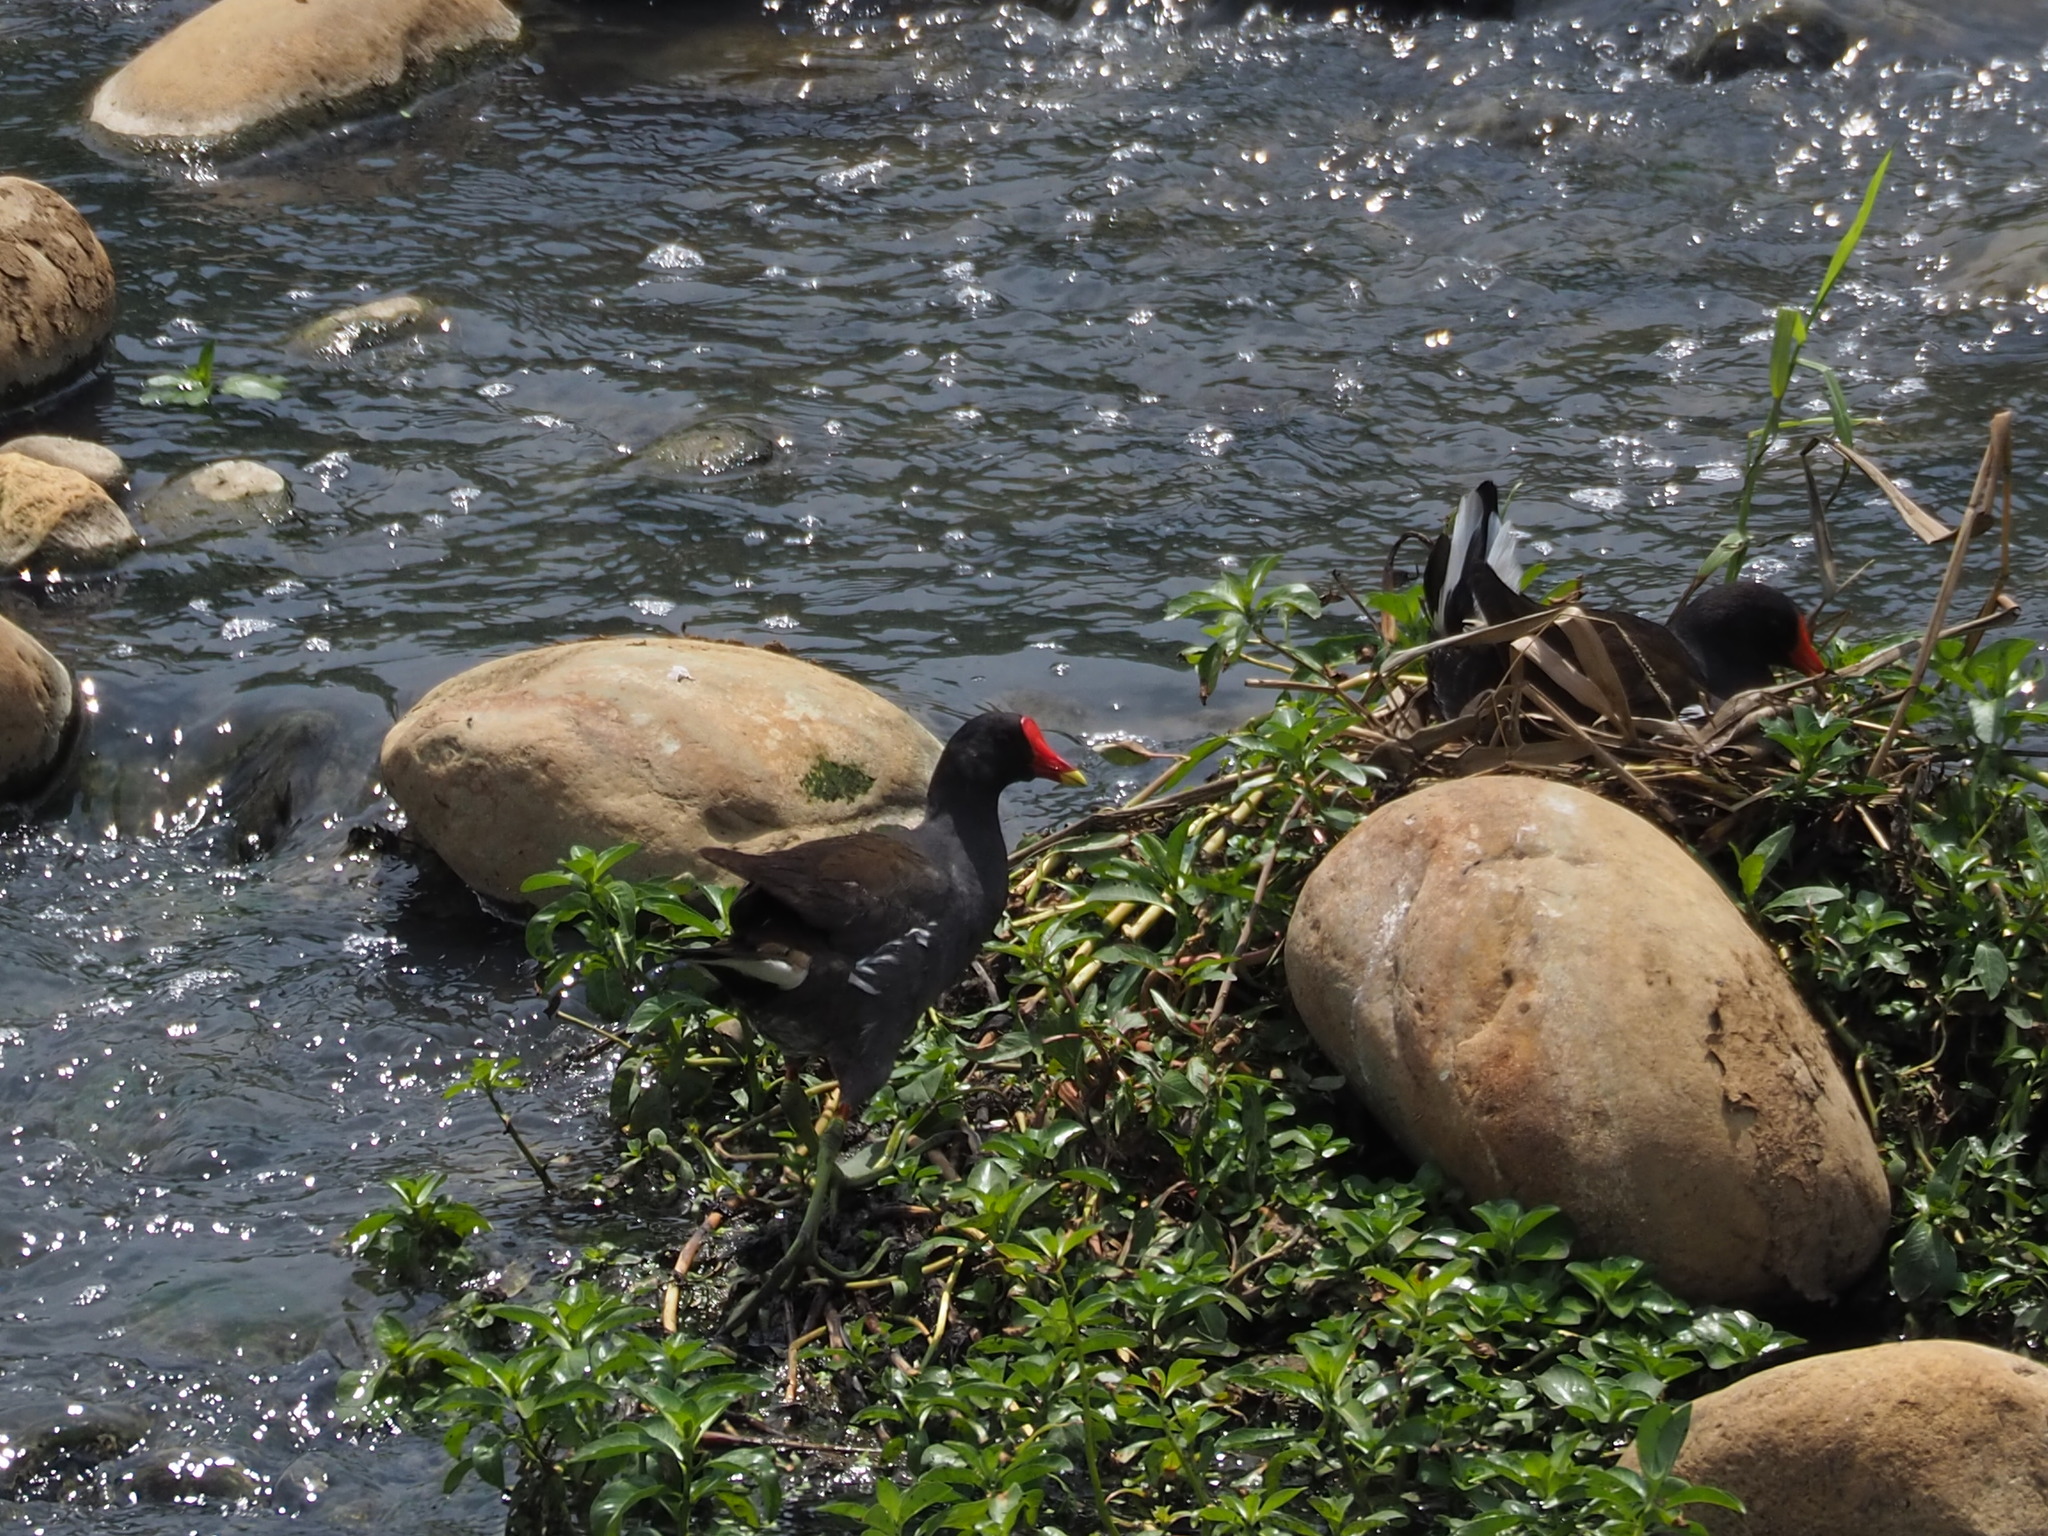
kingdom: Animalia
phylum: Chordata
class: Aves
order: Gruiformes
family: Rallidae
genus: Gallinula
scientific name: Gallinula chloropus
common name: Common moorhen
